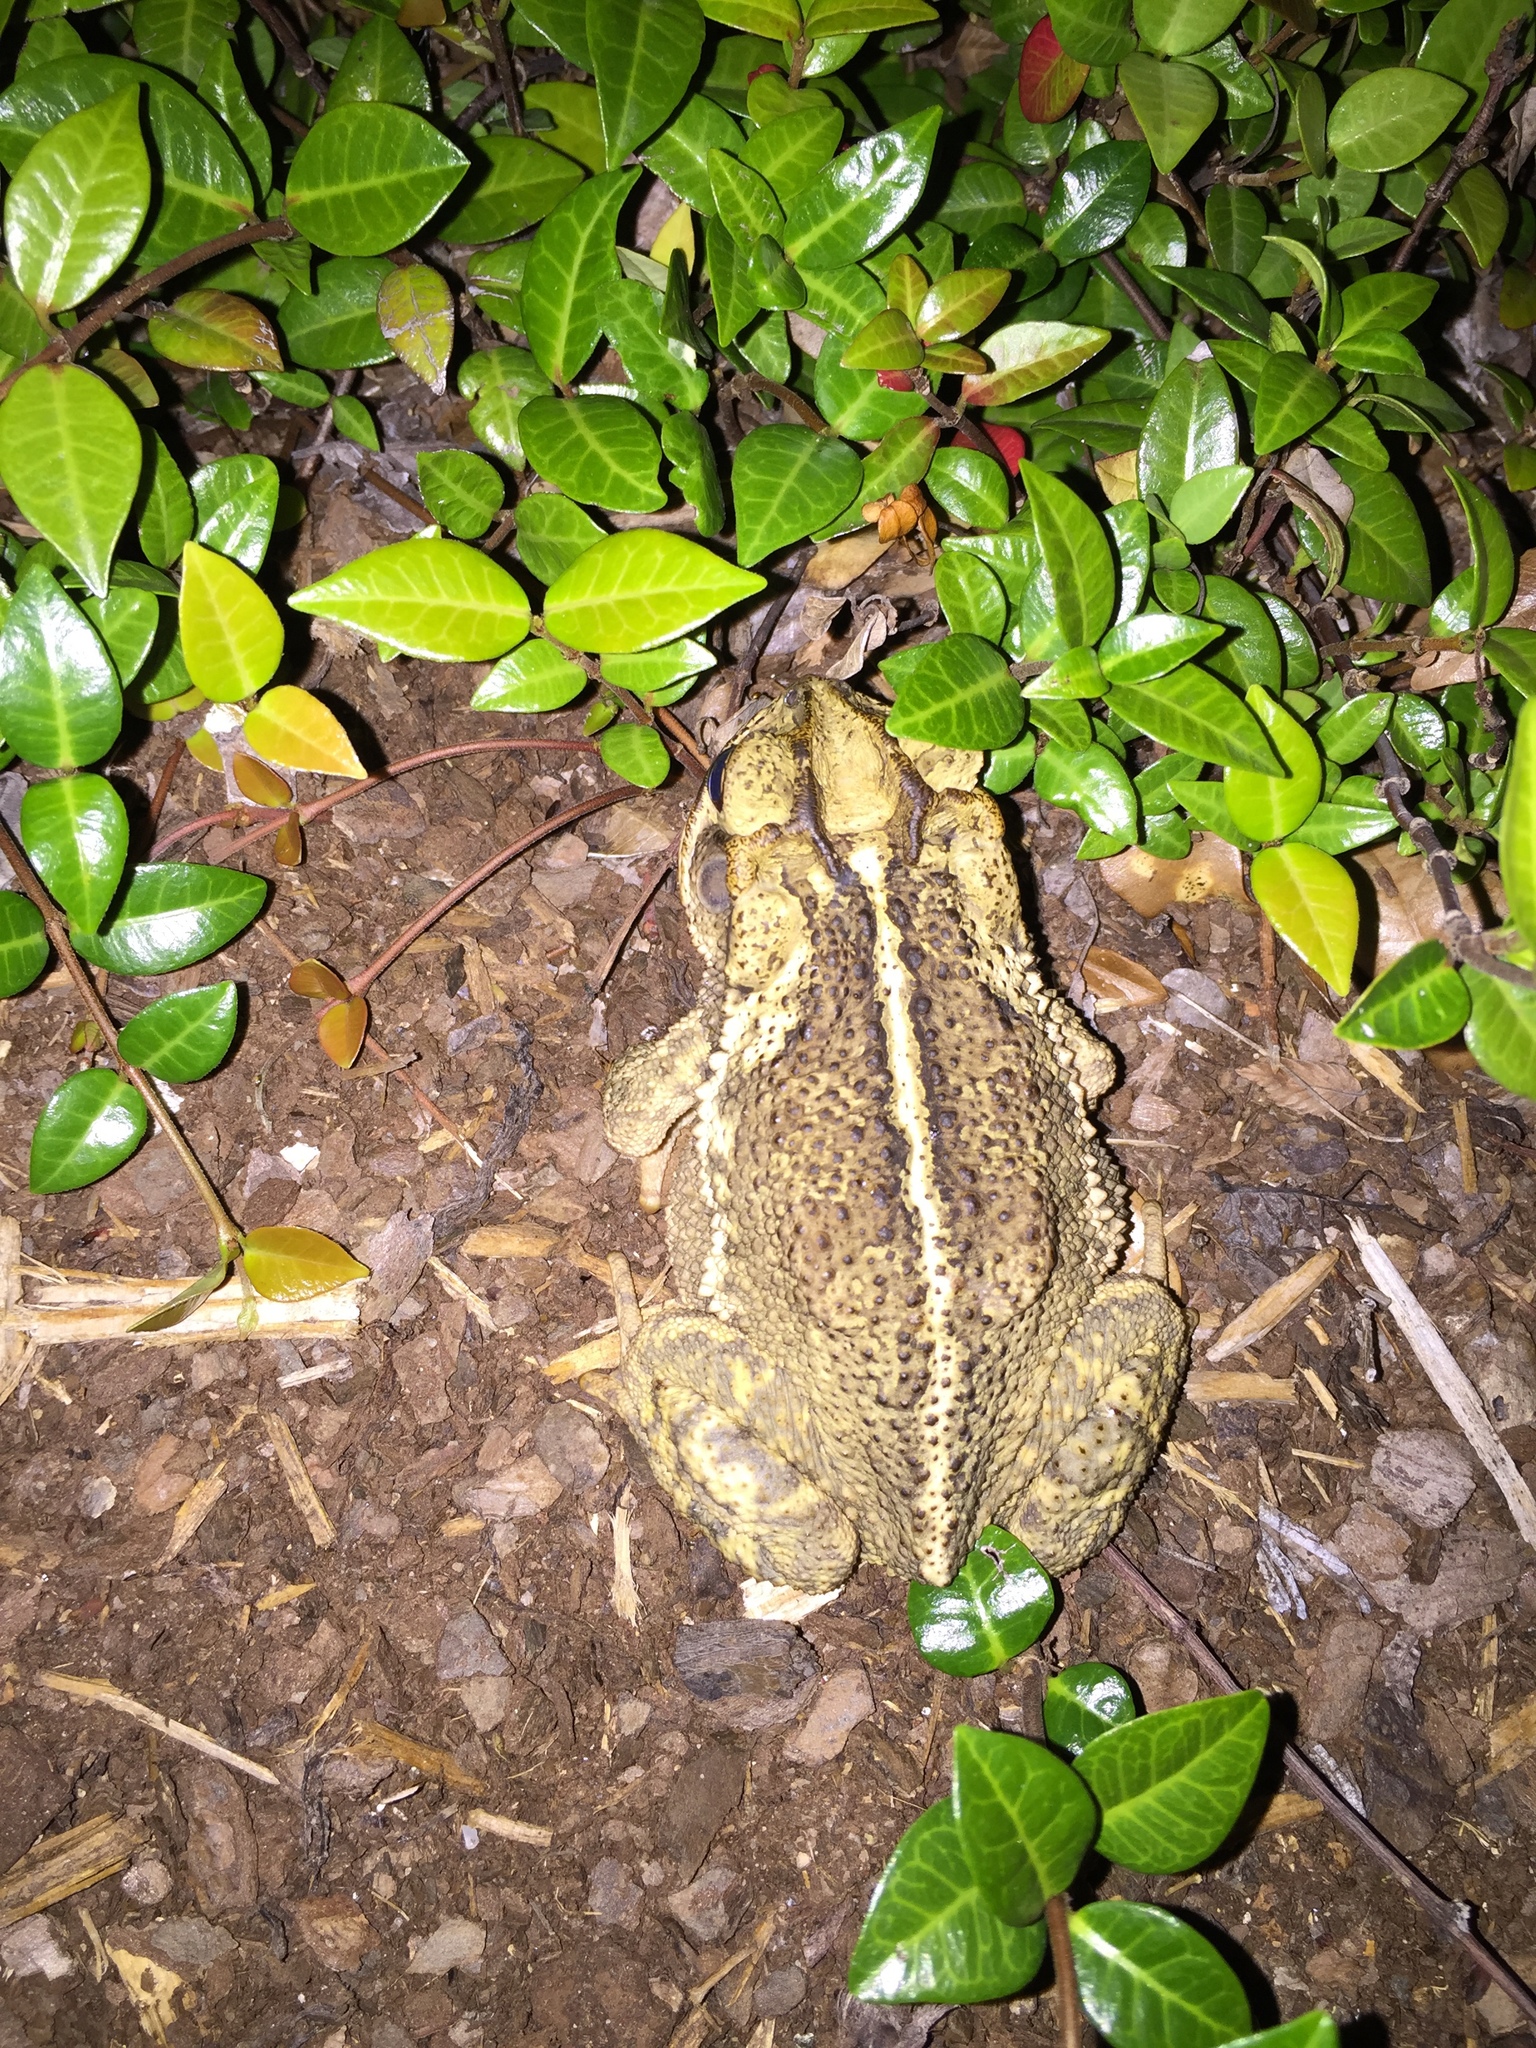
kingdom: Animalia
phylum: Chordata
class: Amphibia
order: Anura
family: Bufonidae
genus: Incilius
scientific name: Incilius nebulifer
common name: Gulf coast toad
